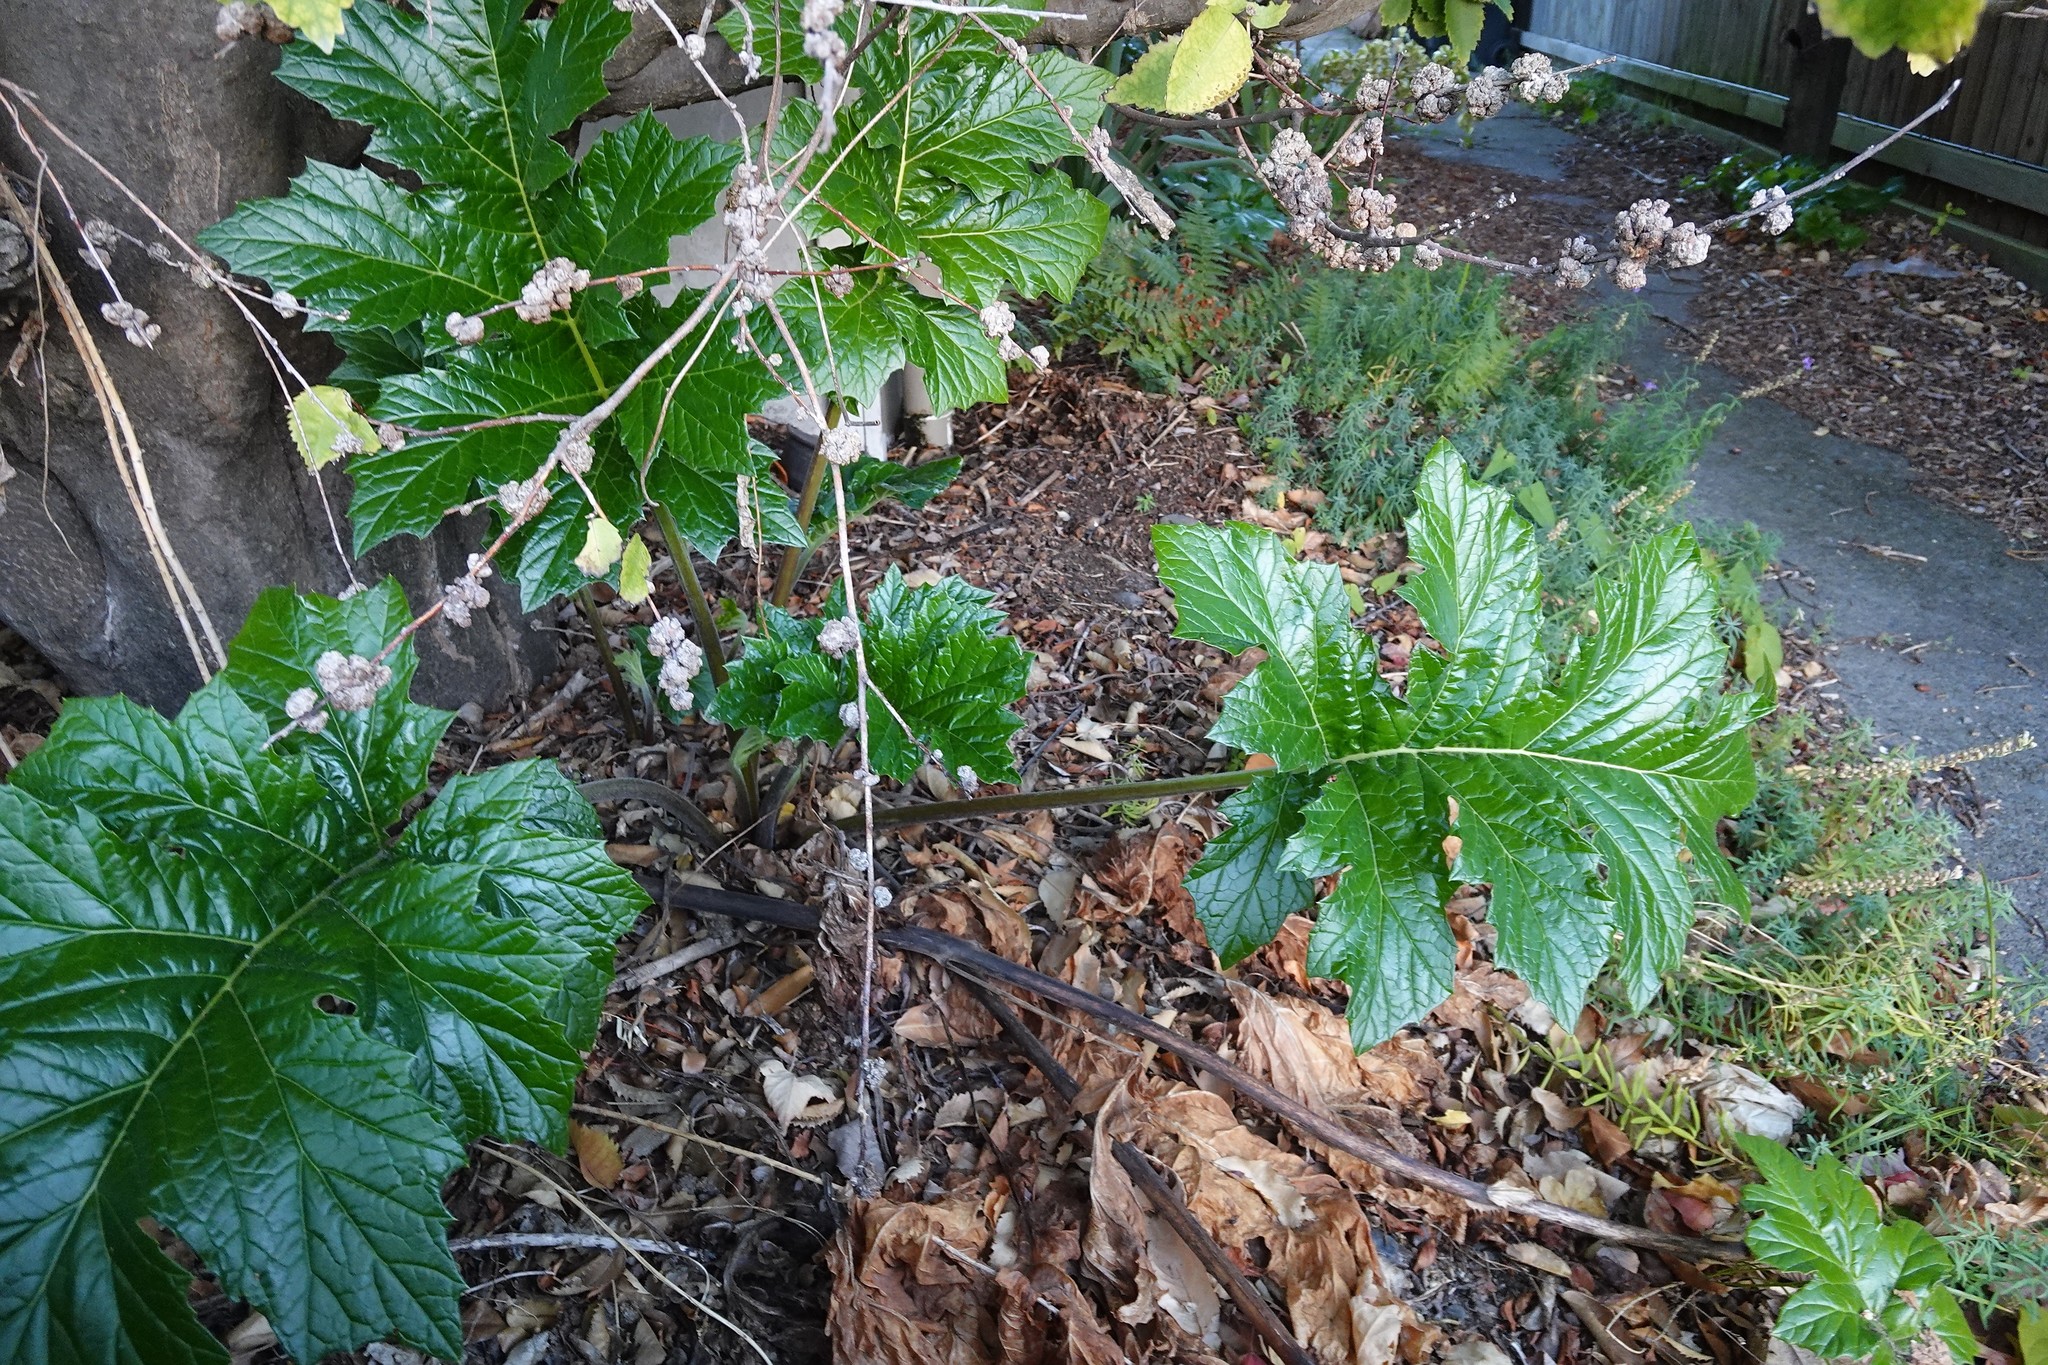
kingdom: Plantae
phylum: Tracheophyta
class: Magnoliopsida
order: Lamiales
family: Acanthaceae
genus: Acanthus
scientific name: Acanthus mollis
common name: Bear's-breech
